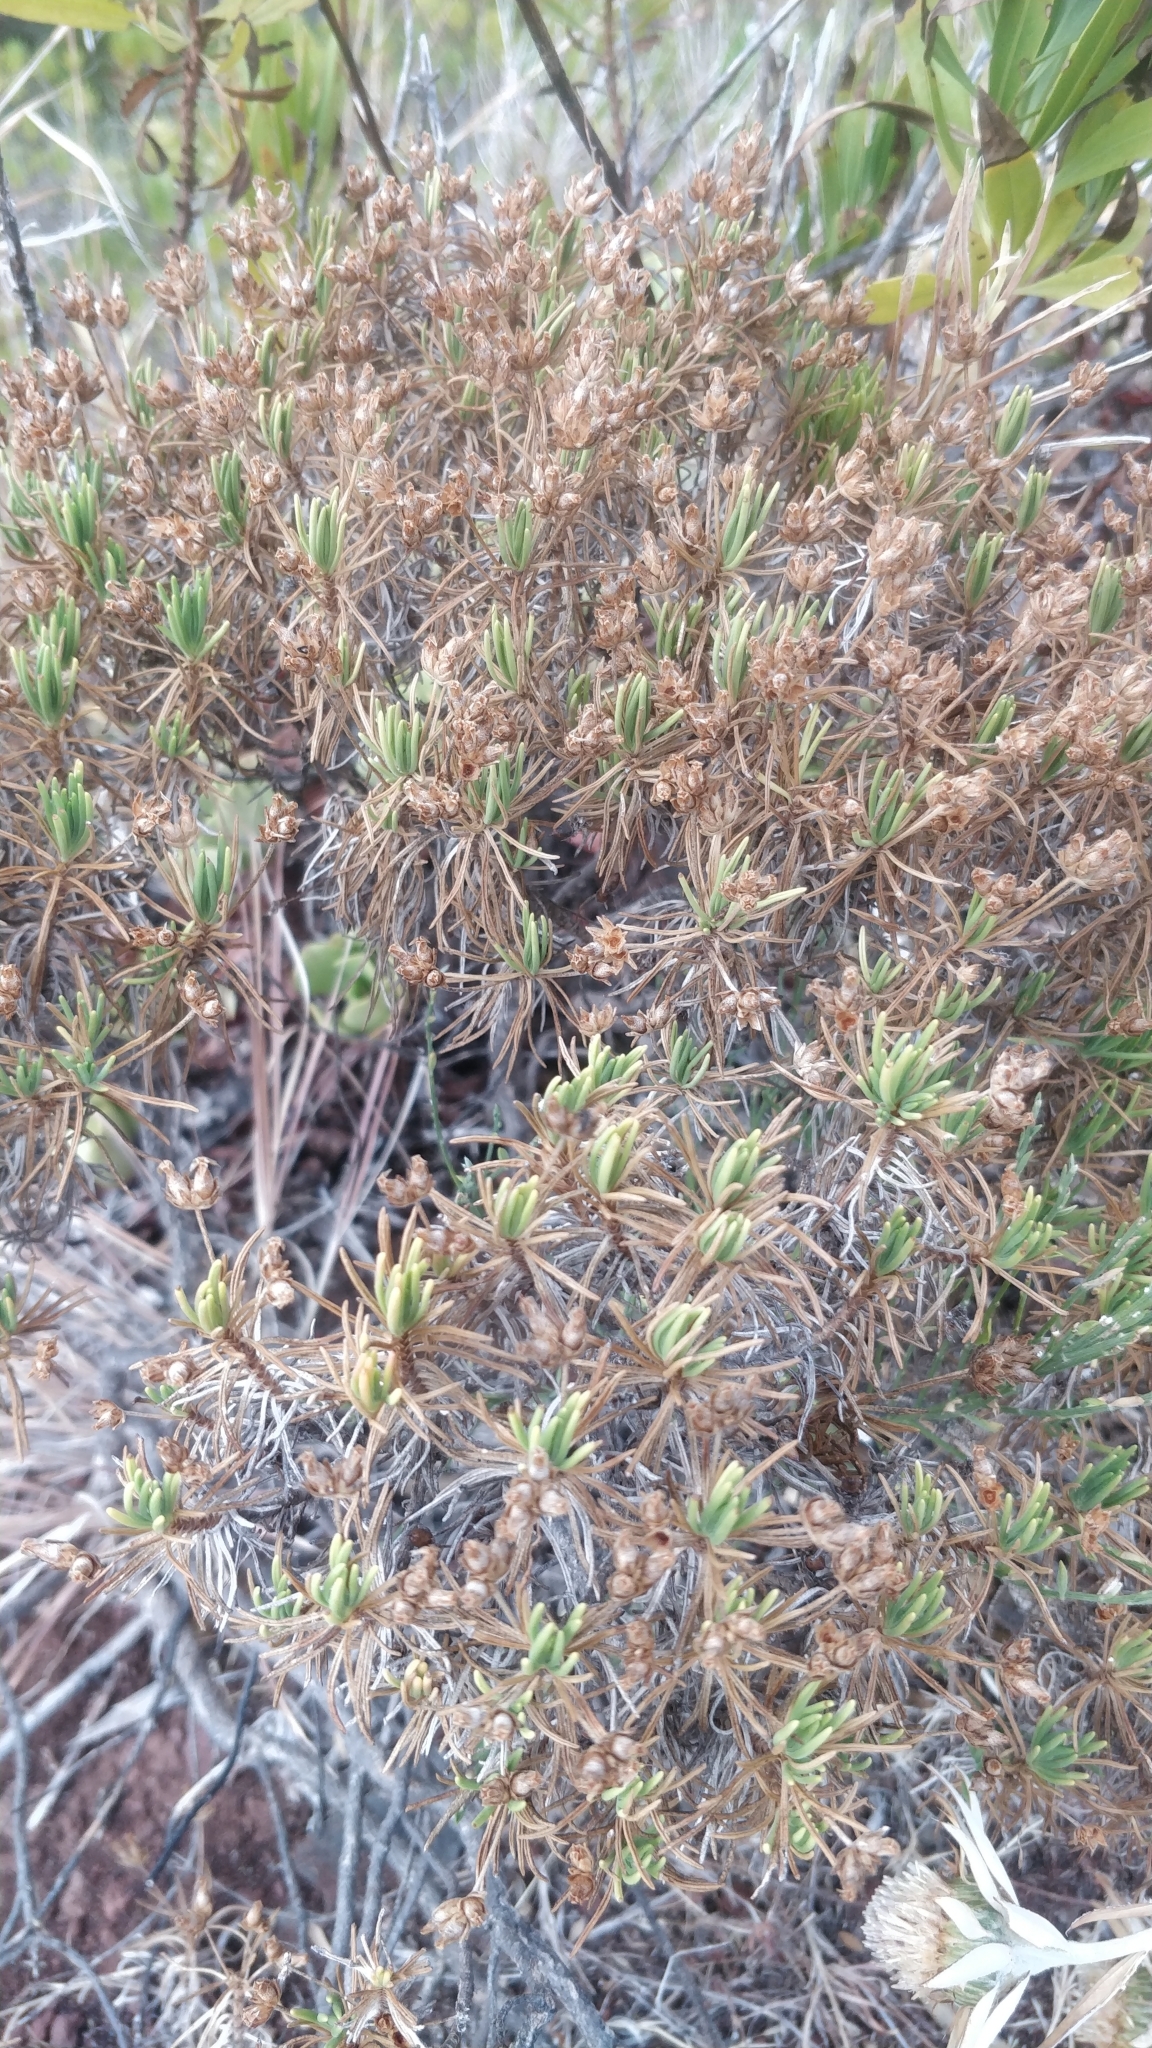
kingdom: Plantae
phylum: Tracheophyta
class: Magnoliopsida
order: Lamiales
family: Plantaginaceae
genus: Plantago
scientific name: Plantago arborescens
